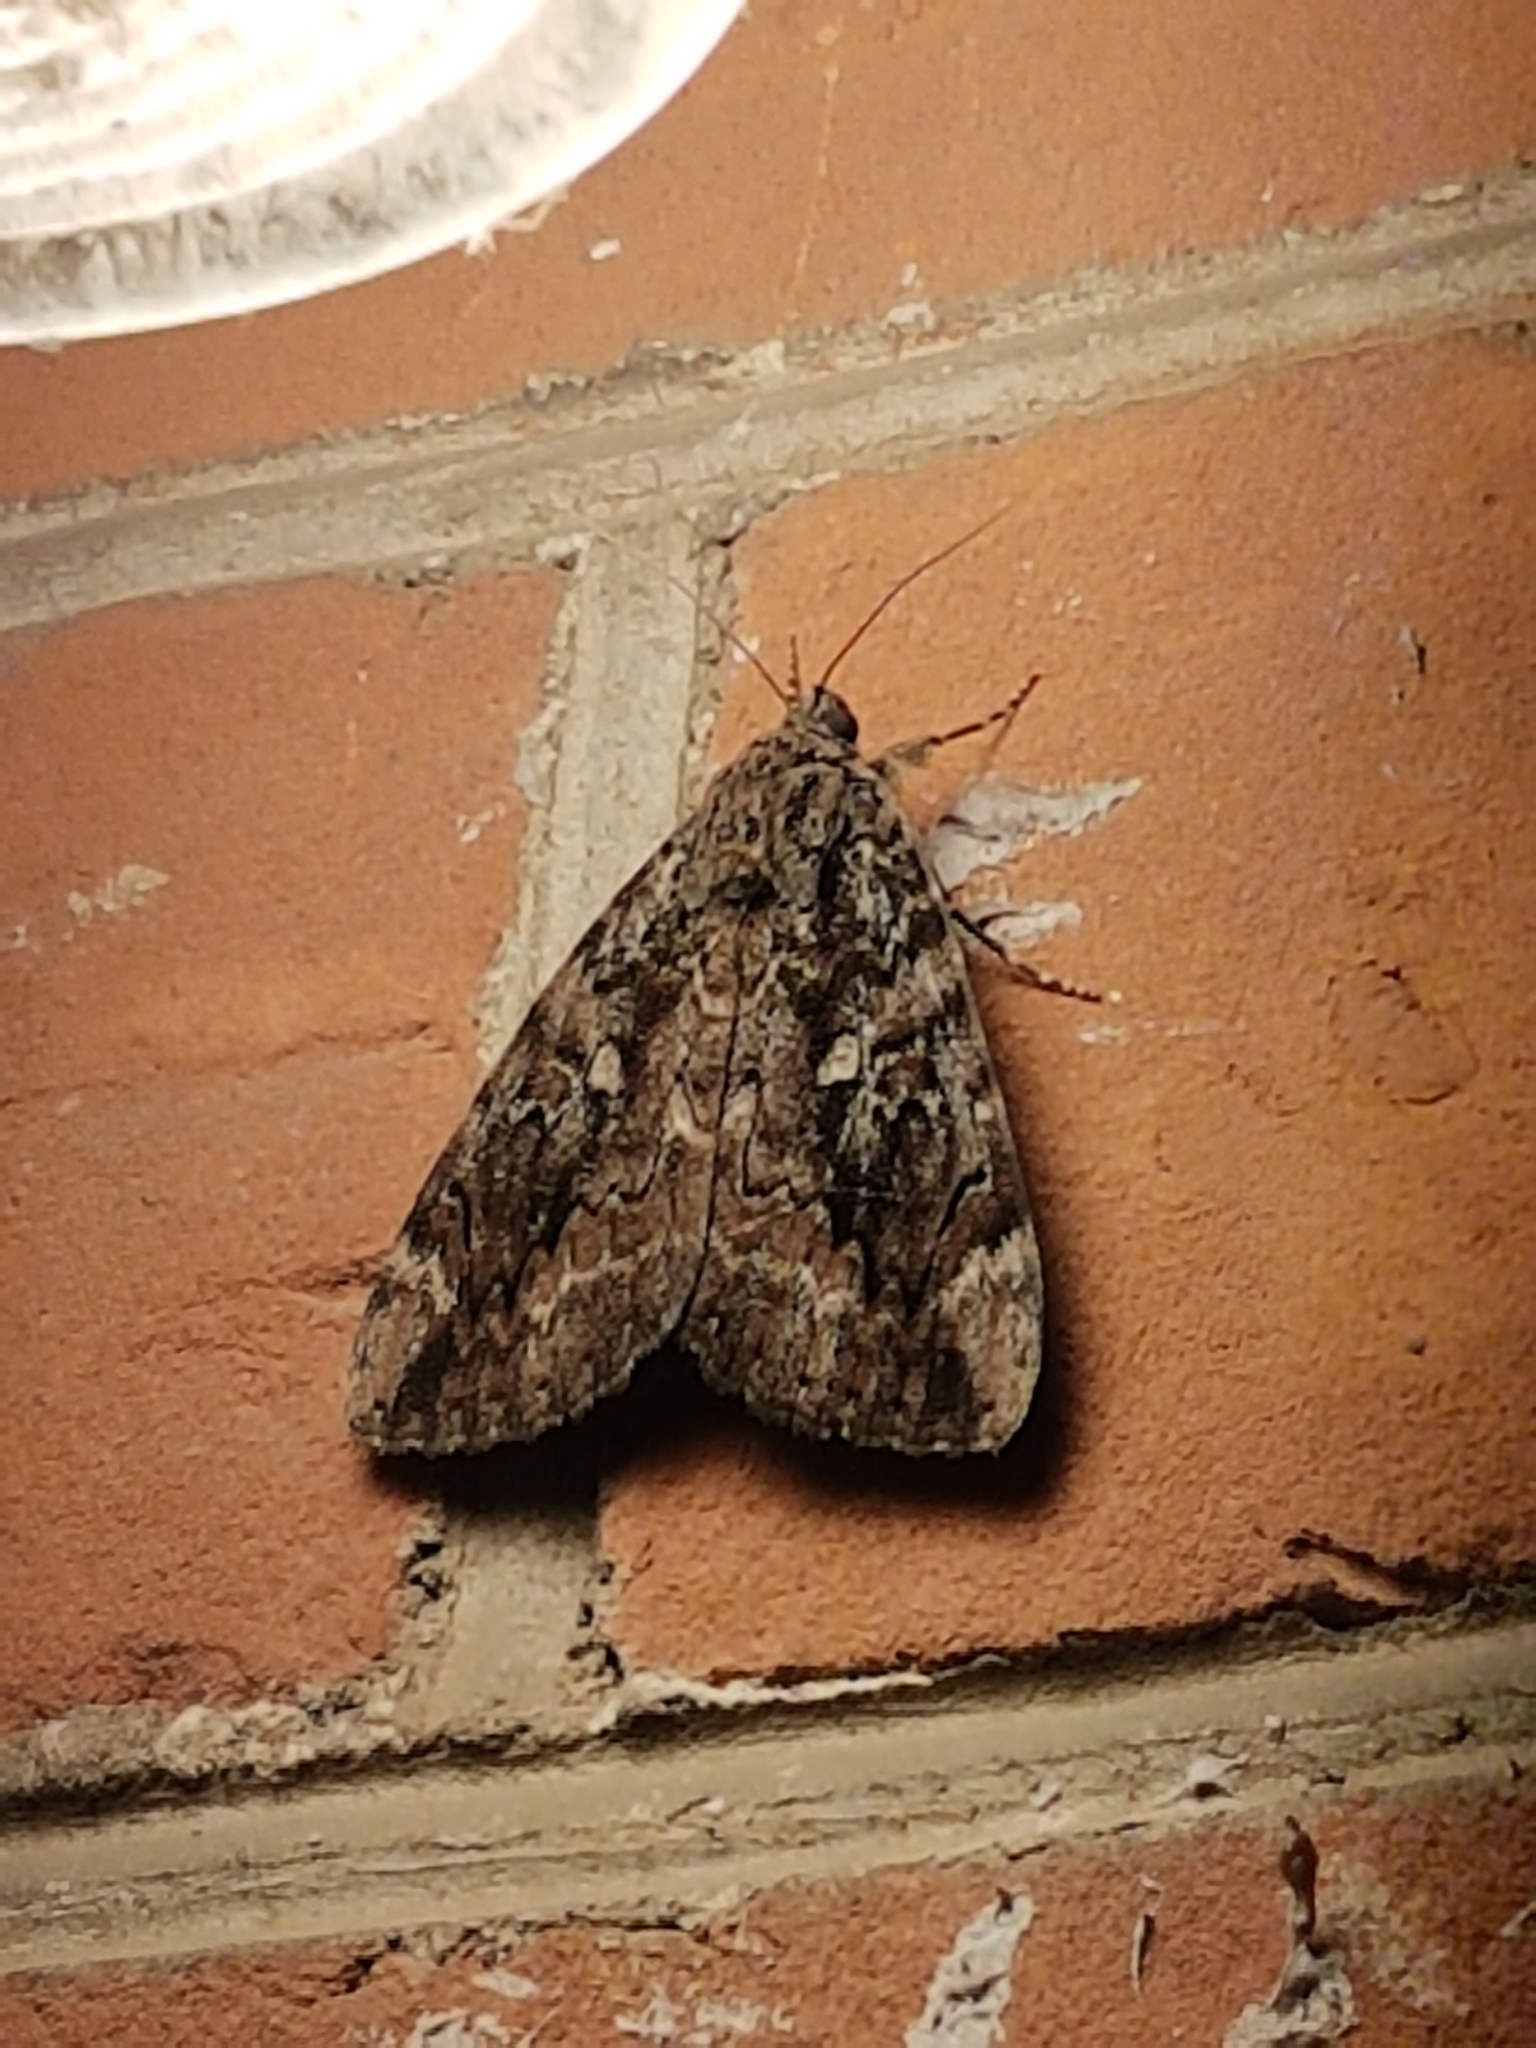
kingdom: Animalia
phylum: Arthropoda
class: Insecta
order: Lepidoptera
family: Erebidae
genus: Catocala
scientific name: Catocala innubens
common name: Betrothed underwing
